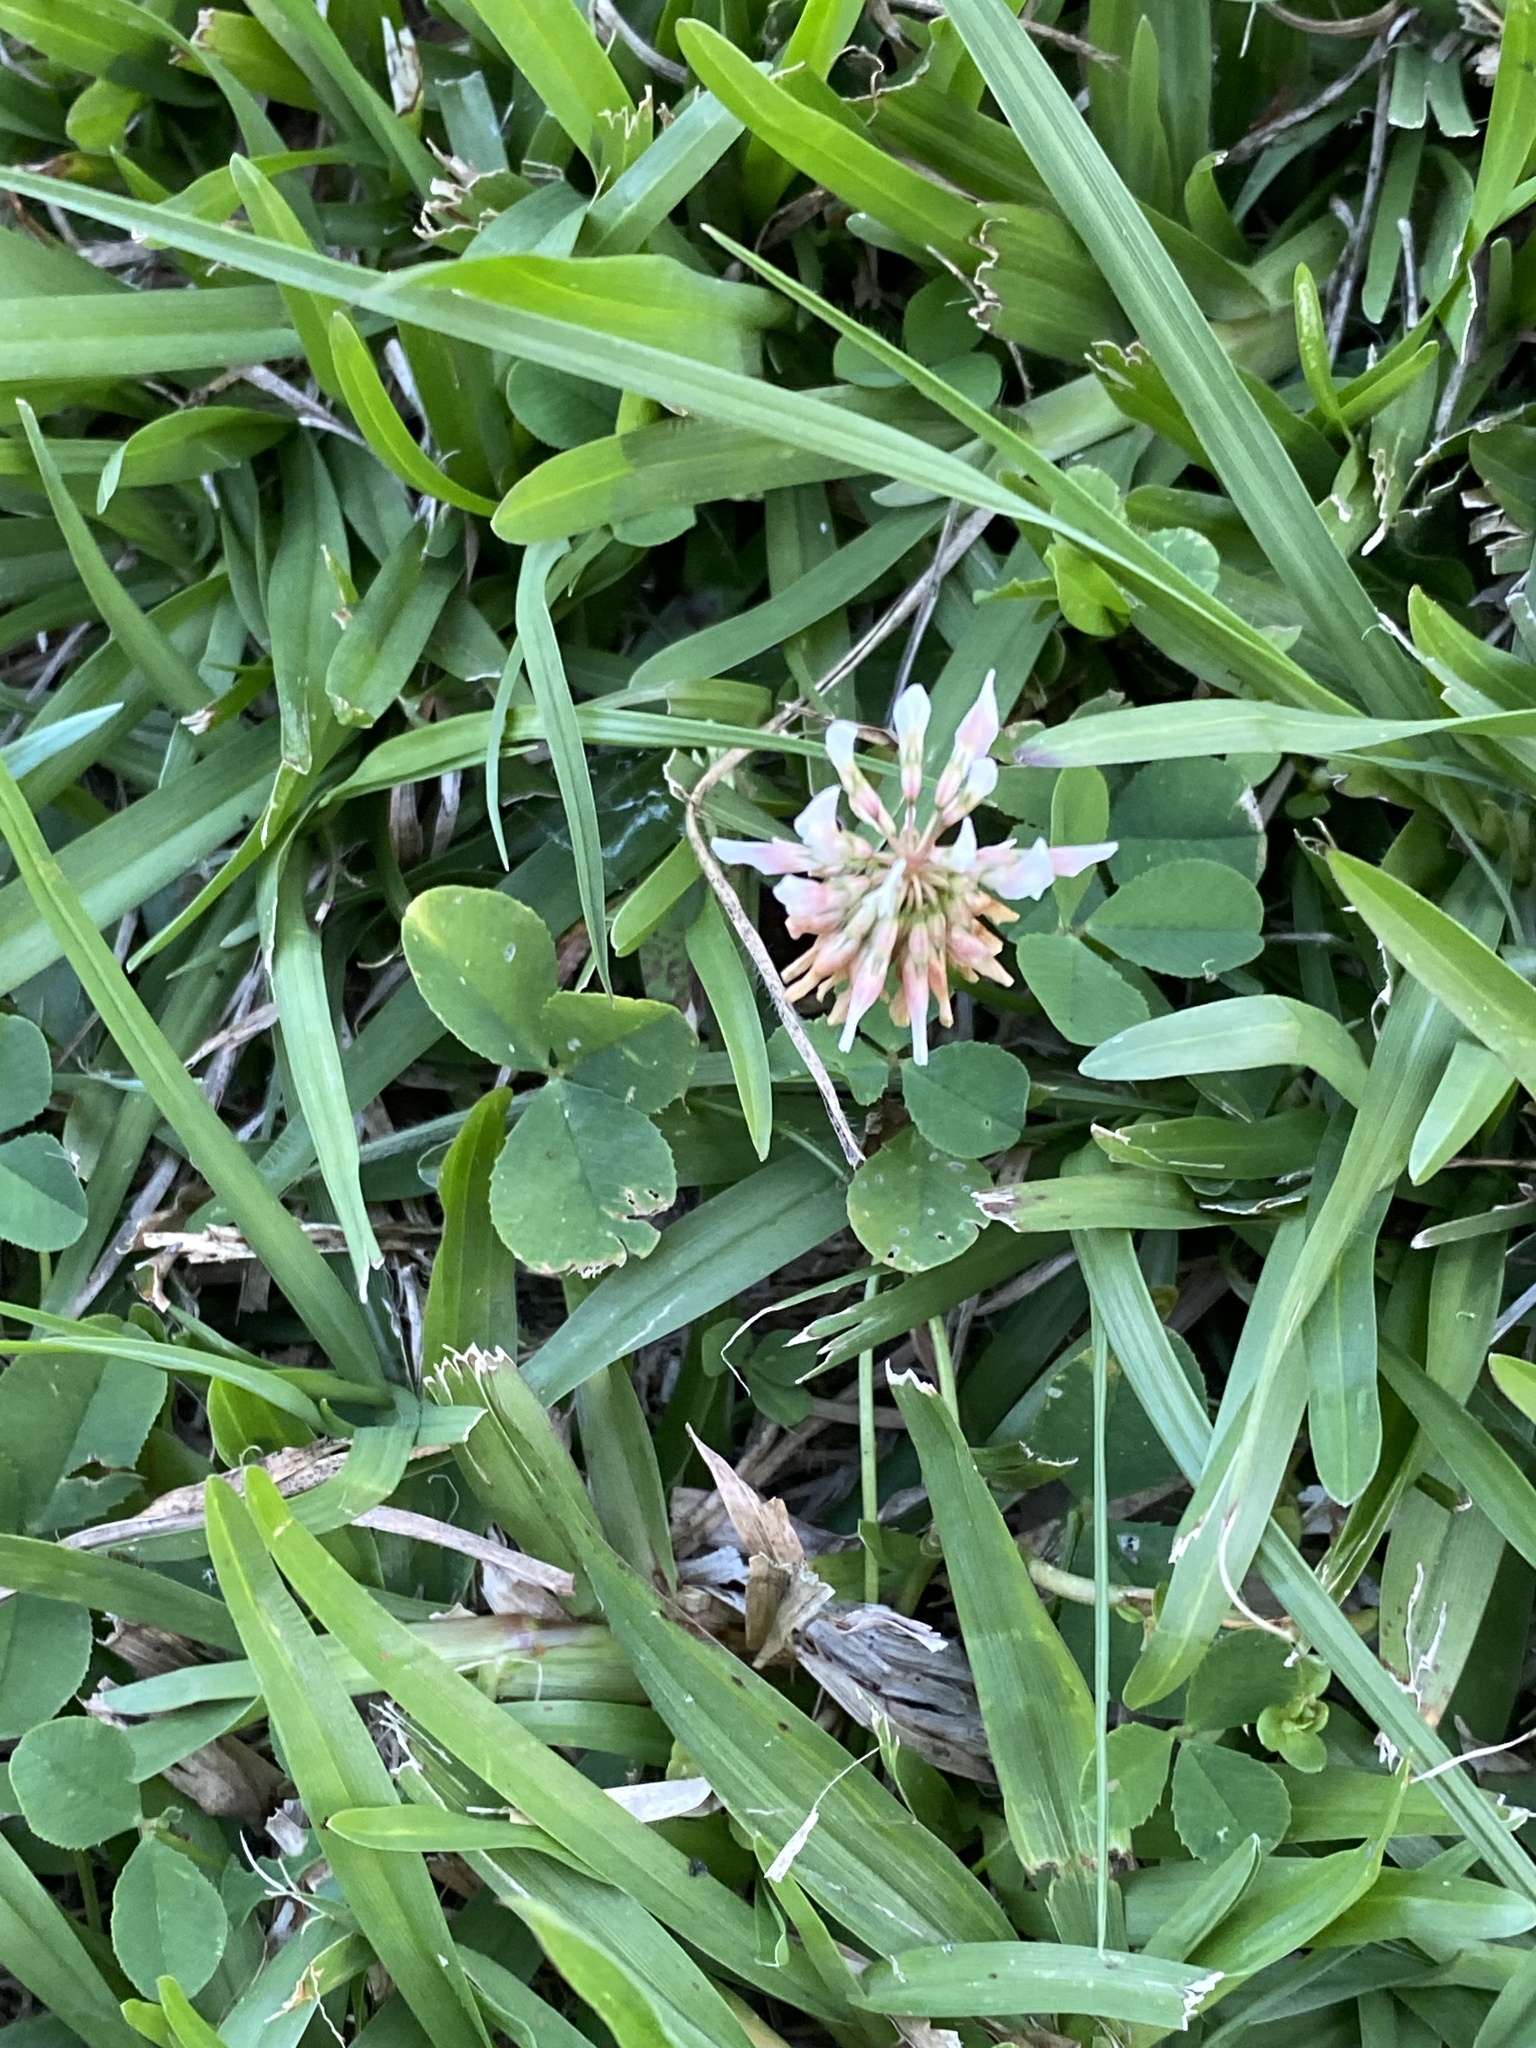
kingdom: Plantae
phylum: Tracheophyta
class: Magnoliopsida
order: Fabales
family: Fabaceae
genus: Trifolium
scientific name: Trifolium repens
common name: White clover
